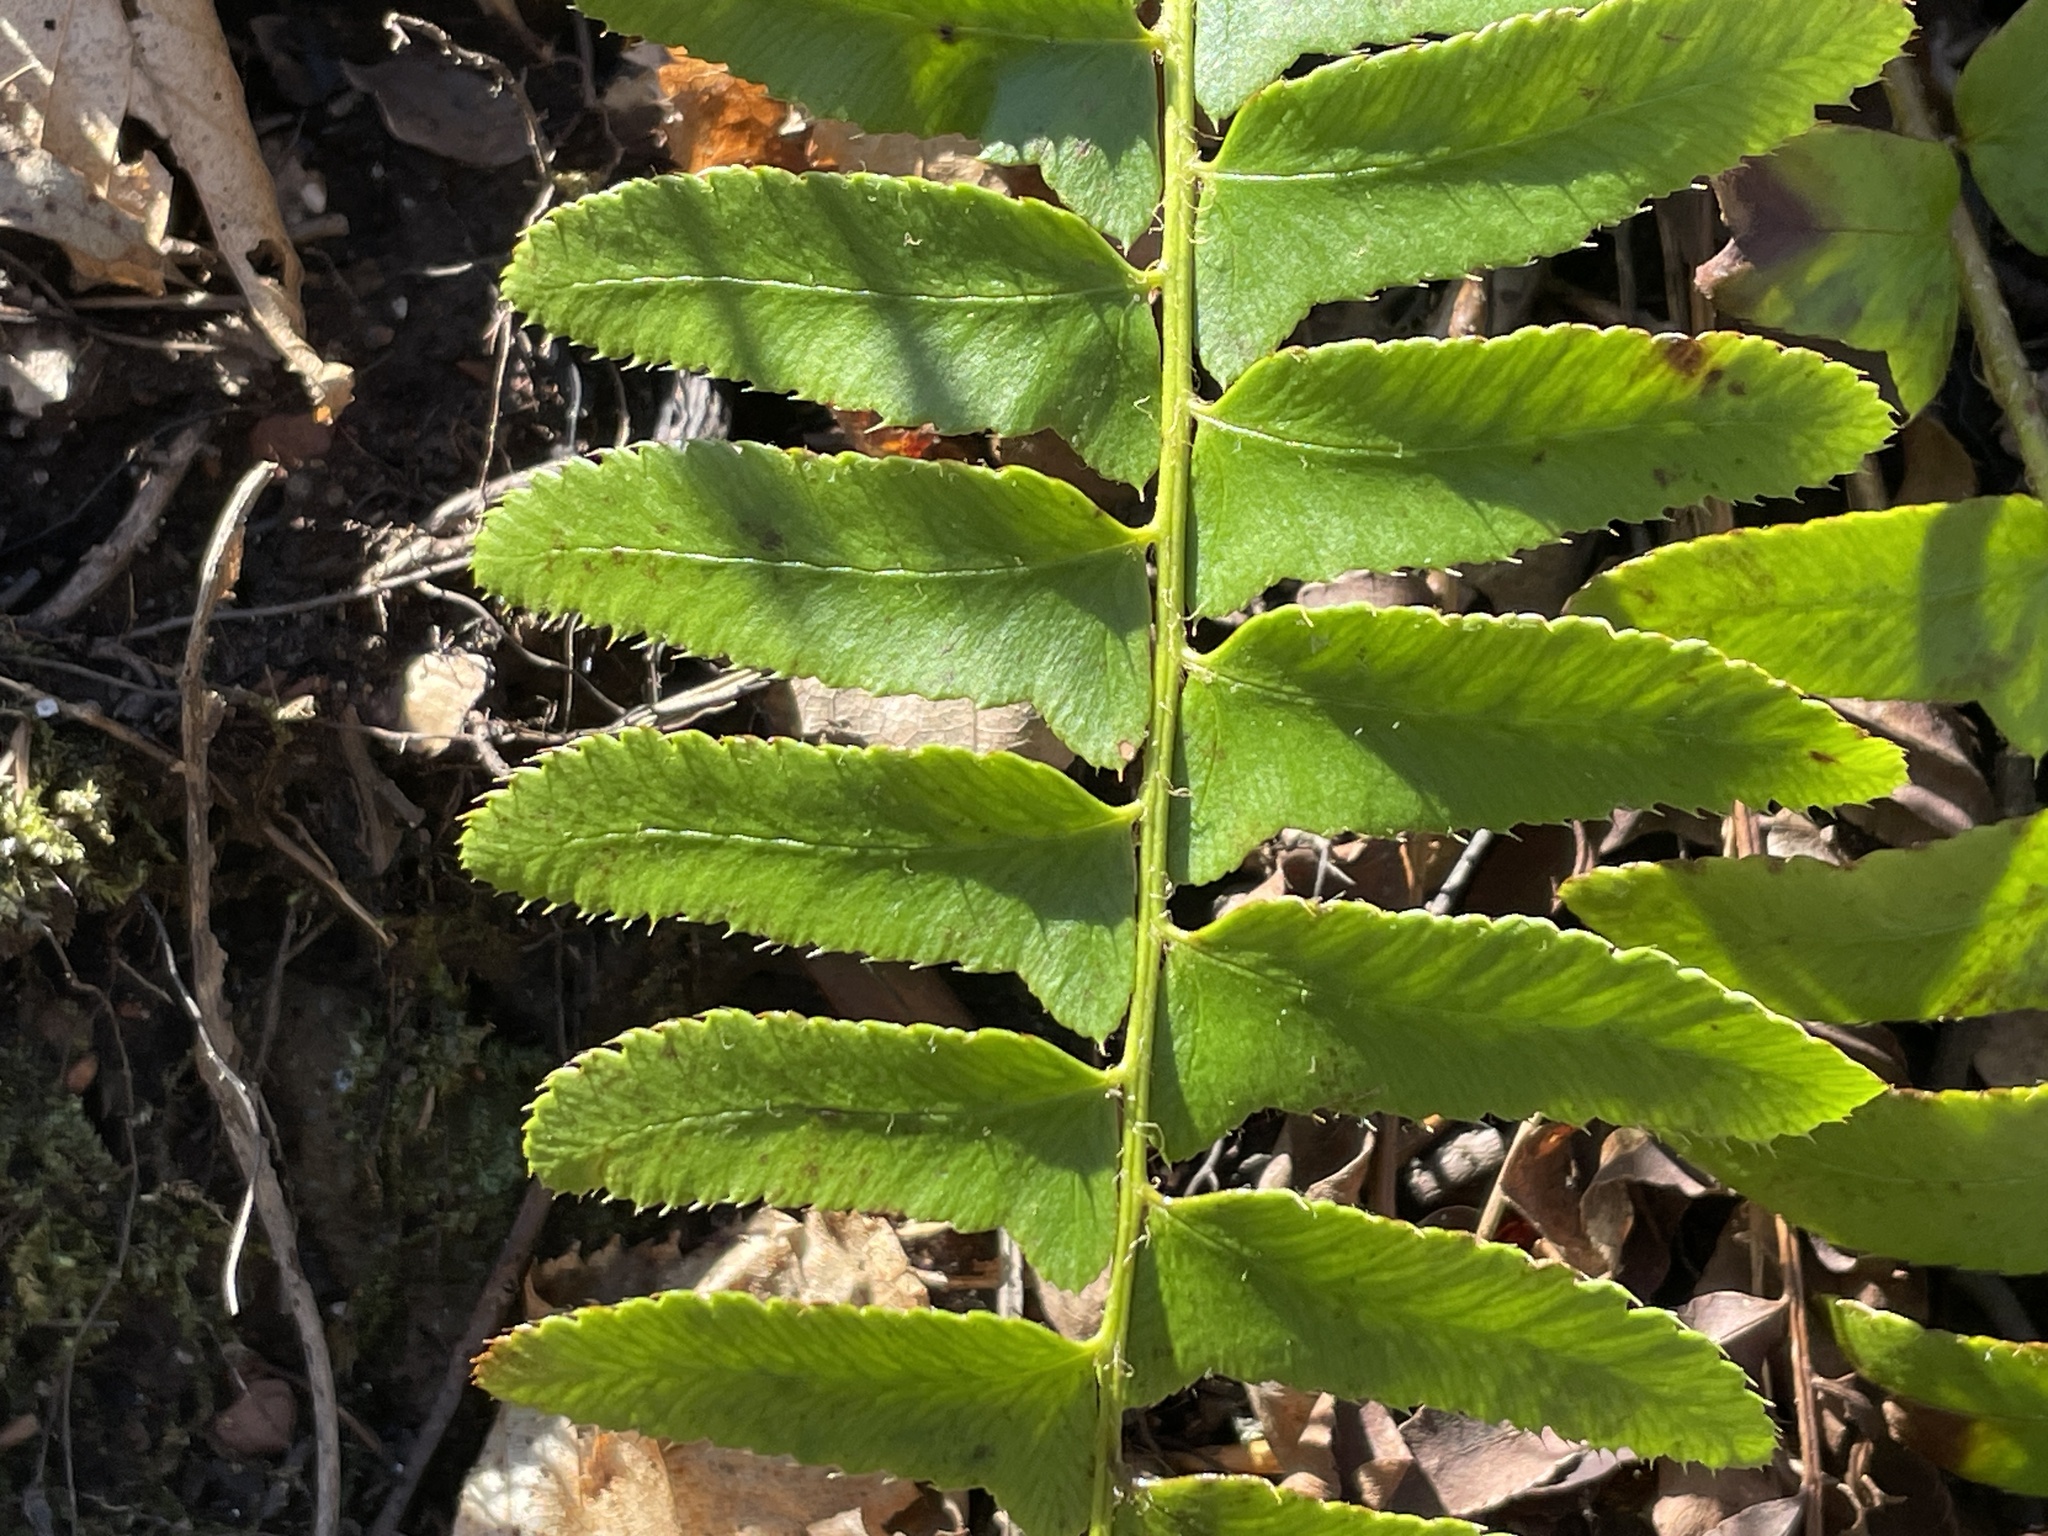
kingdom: Plantae
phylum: Tracheophyta
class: Polypodiopsida
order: Polypodiales
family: Dryopteridaceae
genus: Polystichum
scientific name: Polystichum acrostichoides
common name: Christmas fern
